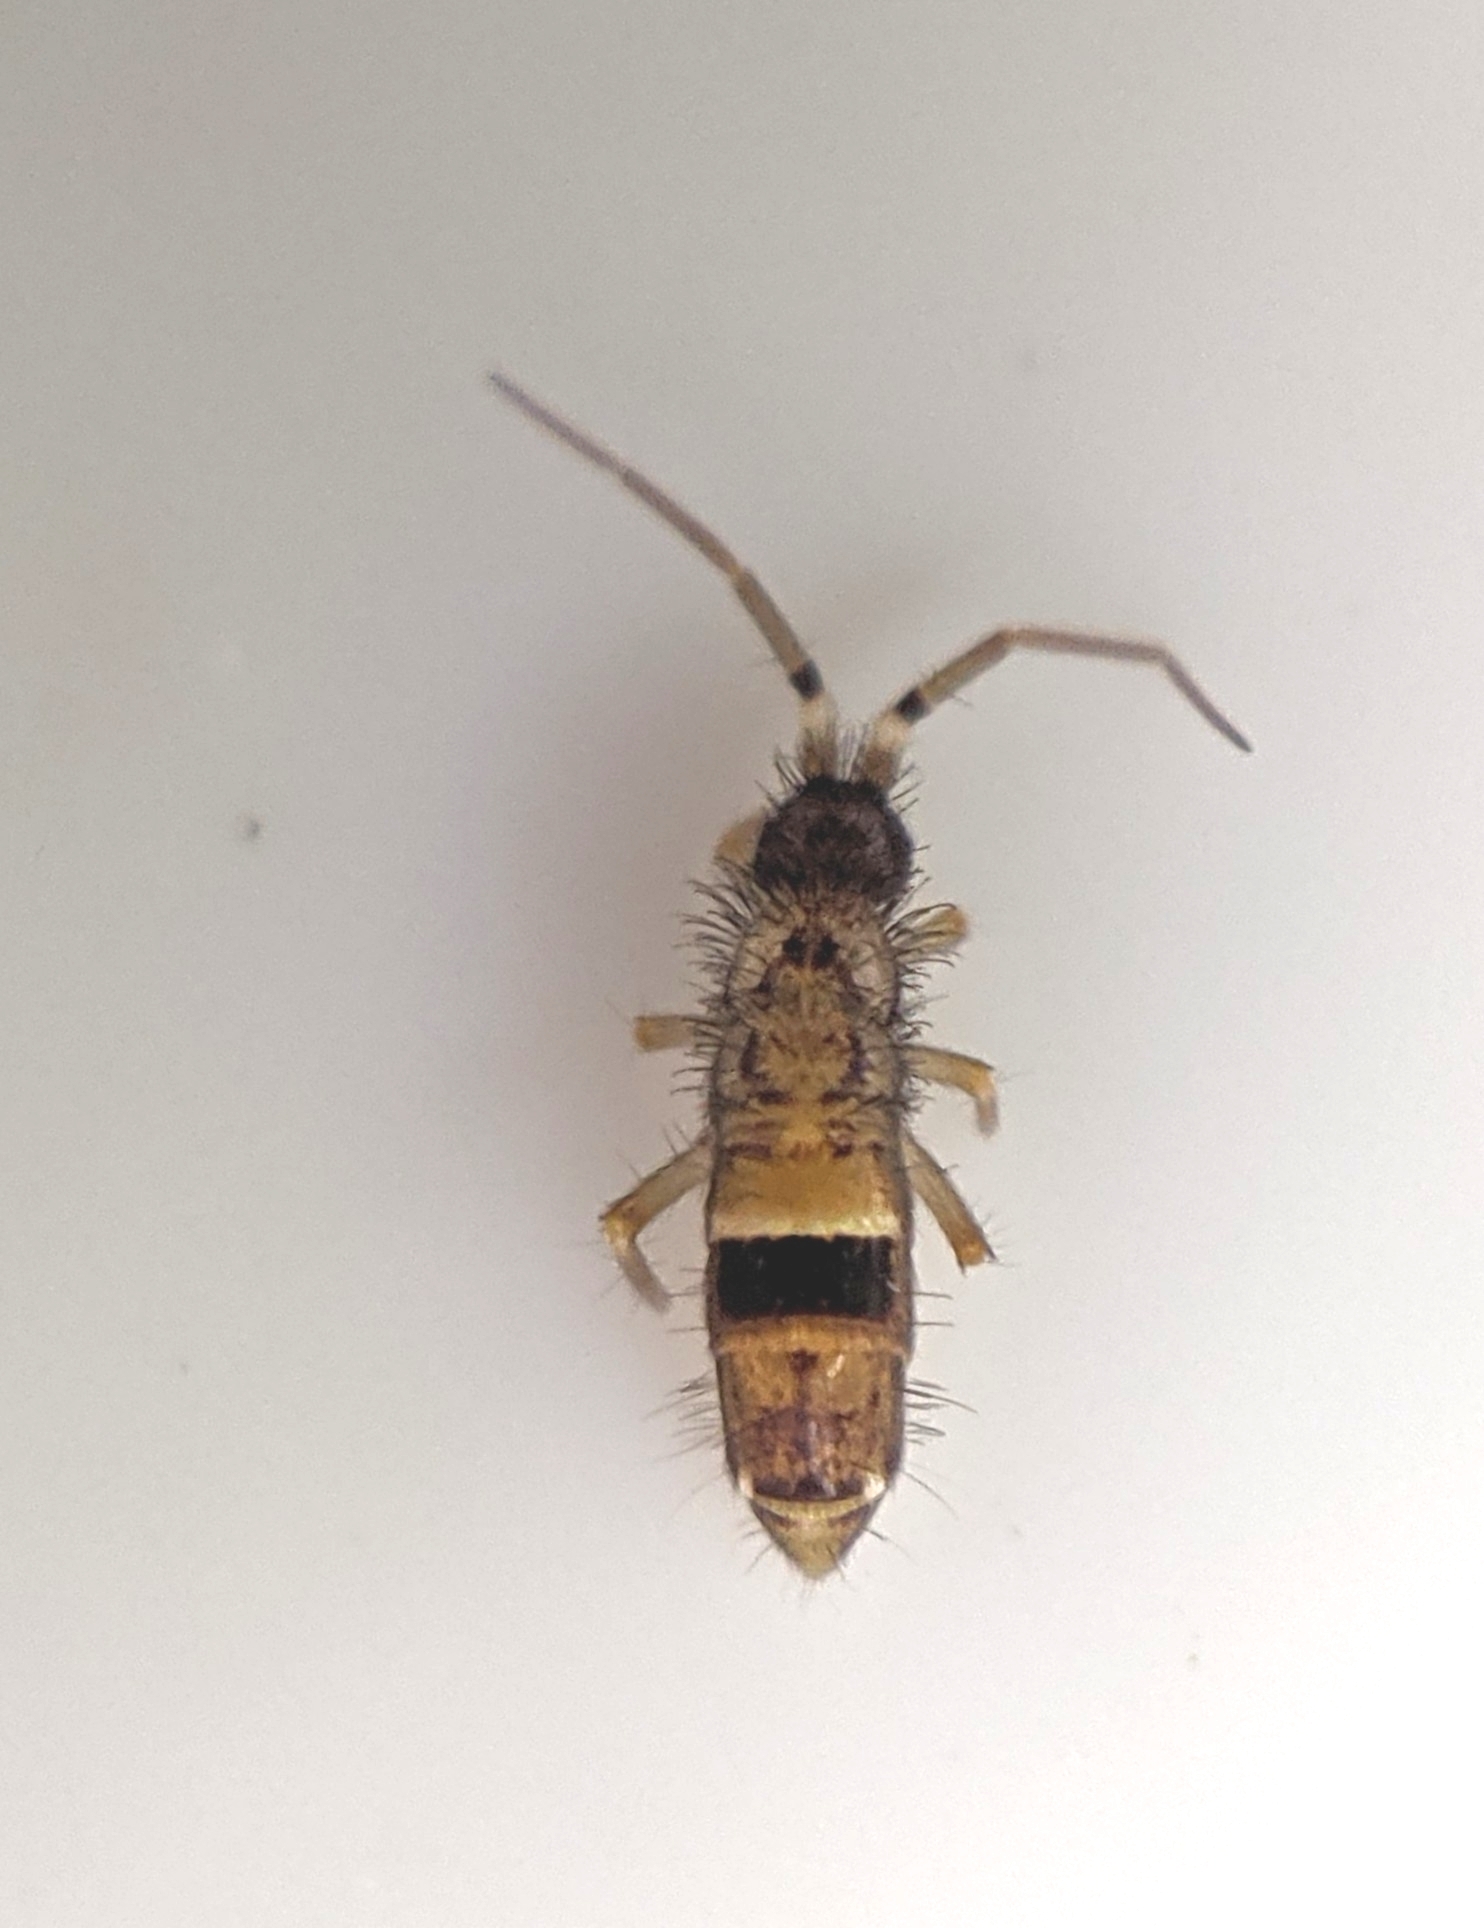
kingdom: Animalia
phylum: Arthropoda
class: Collembola
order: Entomobryomorpha
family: Orchesellidae
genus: Orchesella
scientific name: Orchesella cincta
